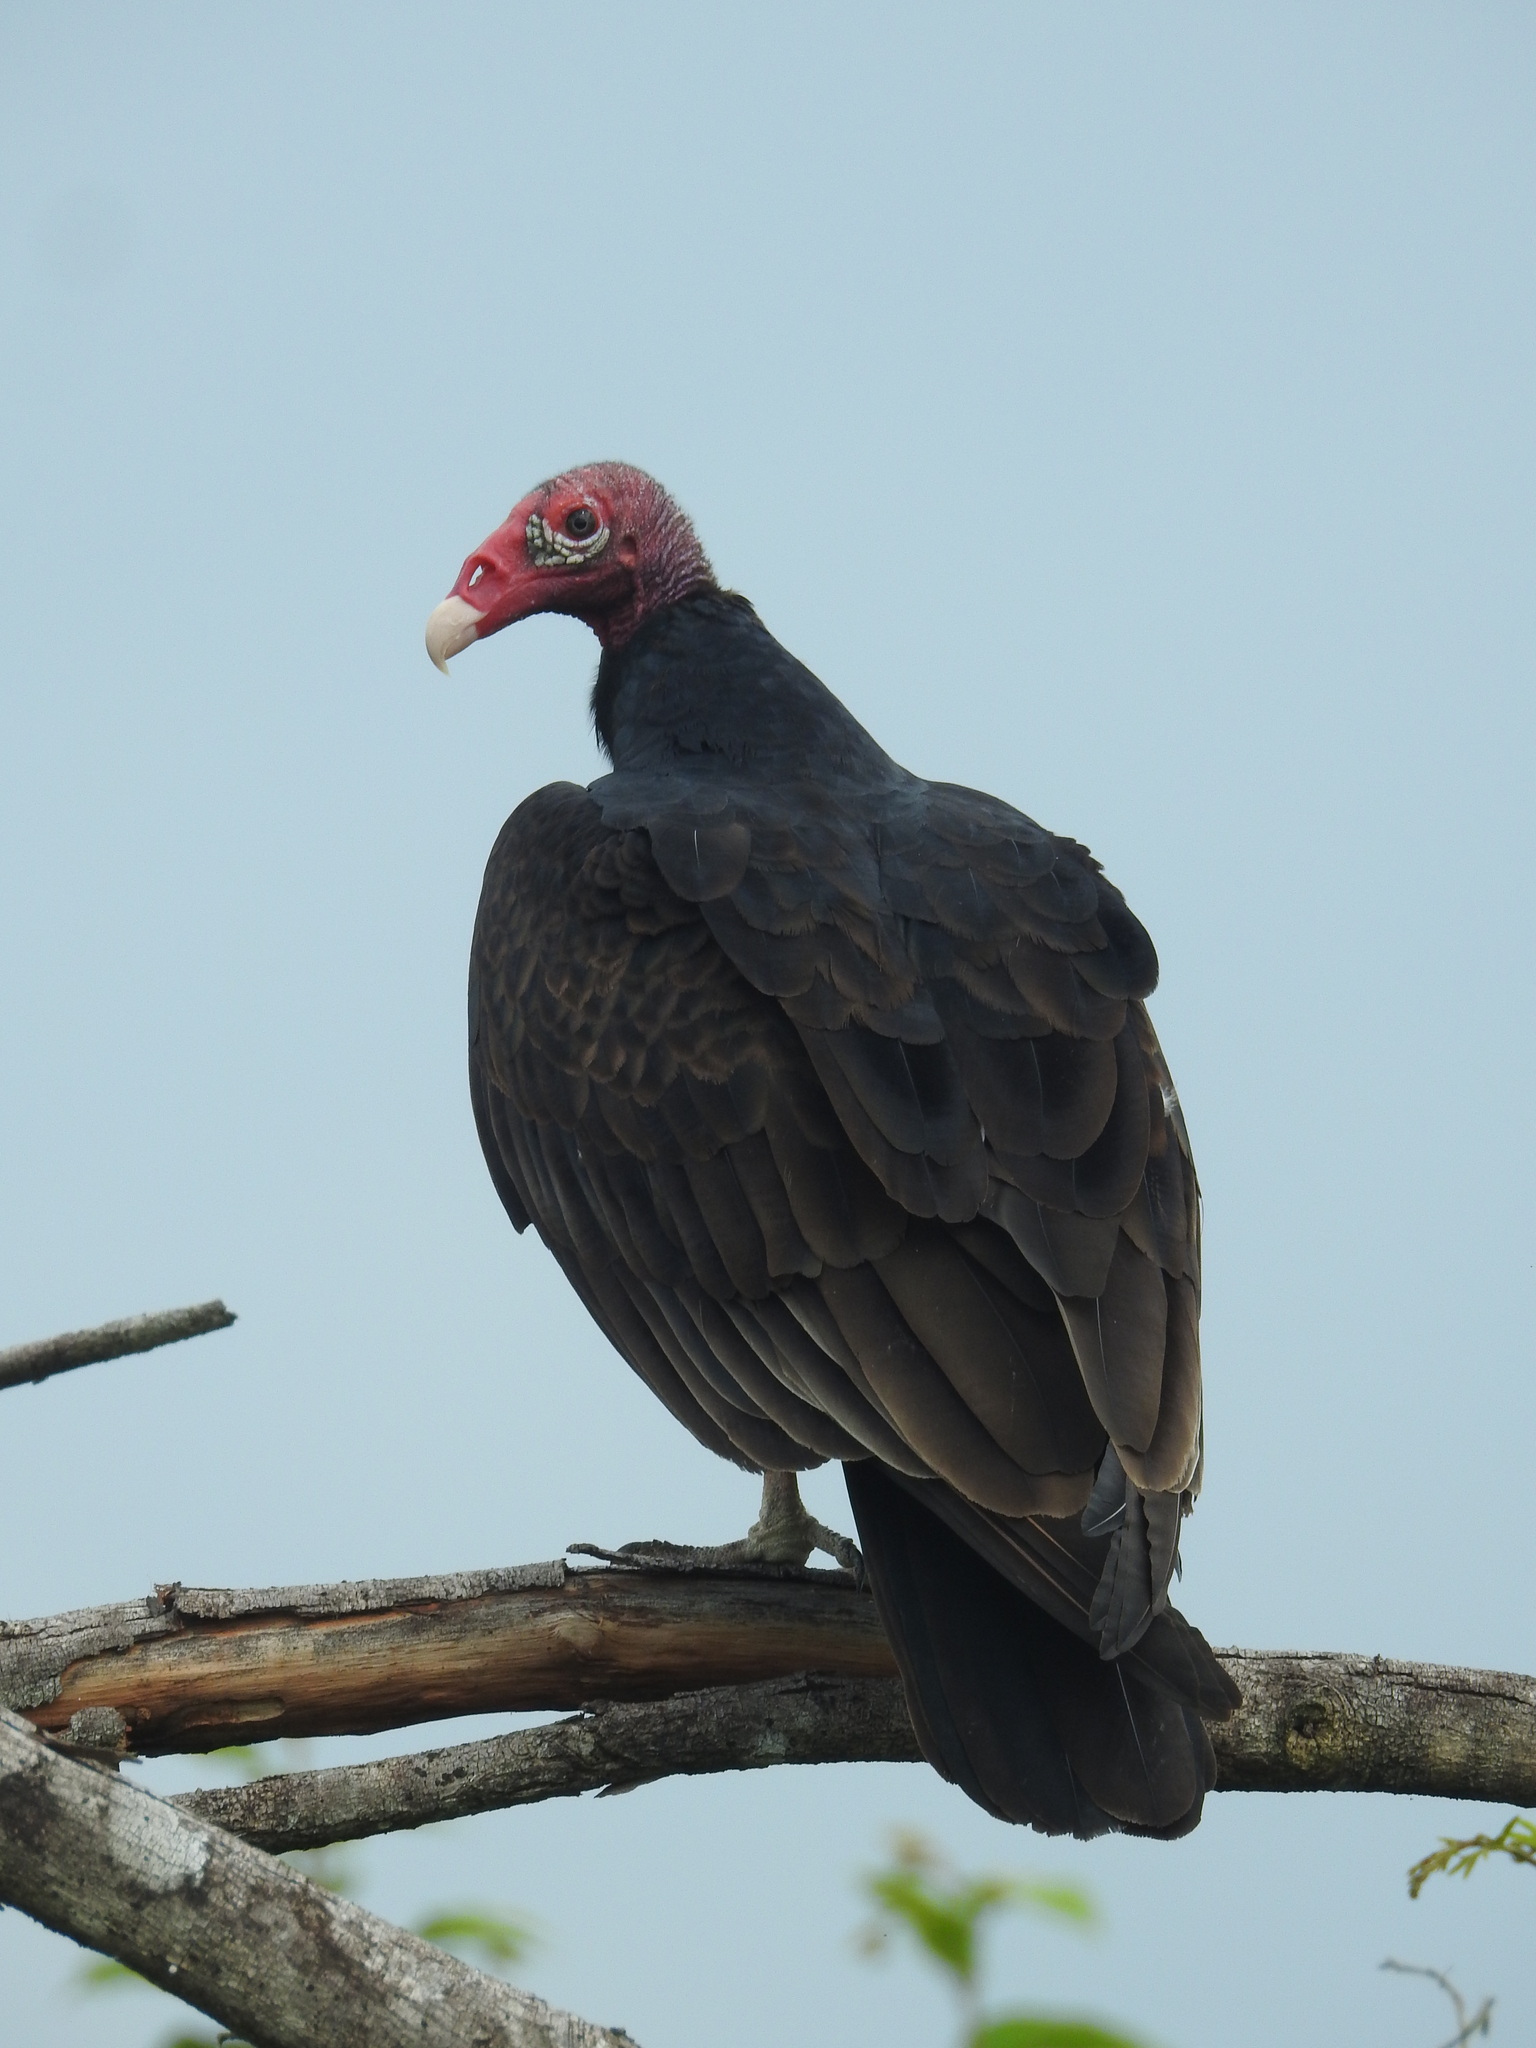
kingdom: Animalia
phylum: Chordata
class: Aves
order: Accipitriformes
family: Cathartidae
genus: Cathartes
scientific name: Cathartes aura
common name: Turkey vulture
